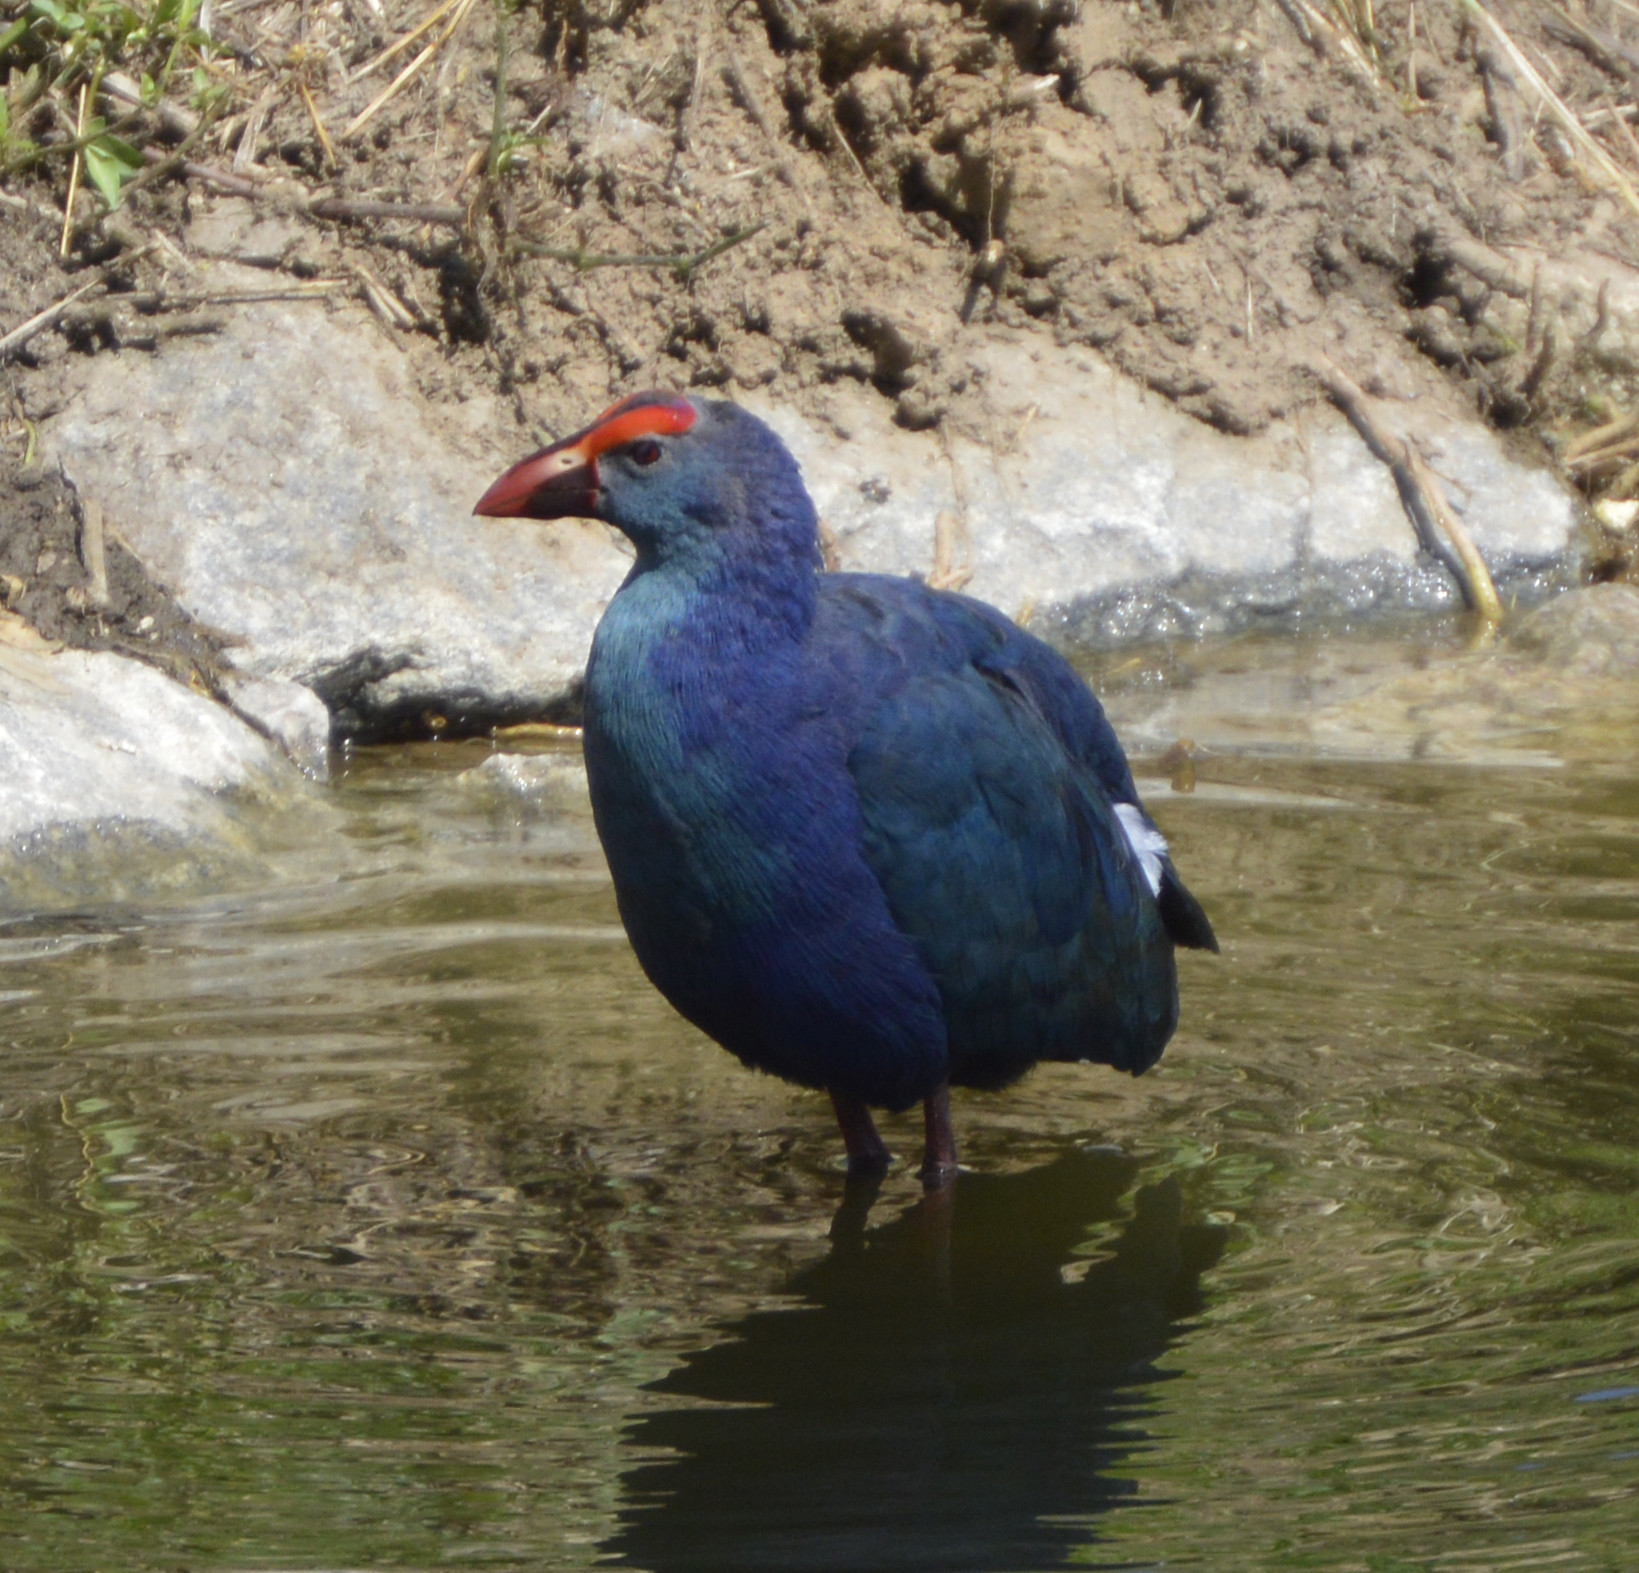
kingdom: Animalia
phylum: Chordata
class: Aves
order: Gruiformes
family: Rallidae
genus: Porphyrio
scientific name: Porphyrio porphyrio
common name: Purple swamphen
